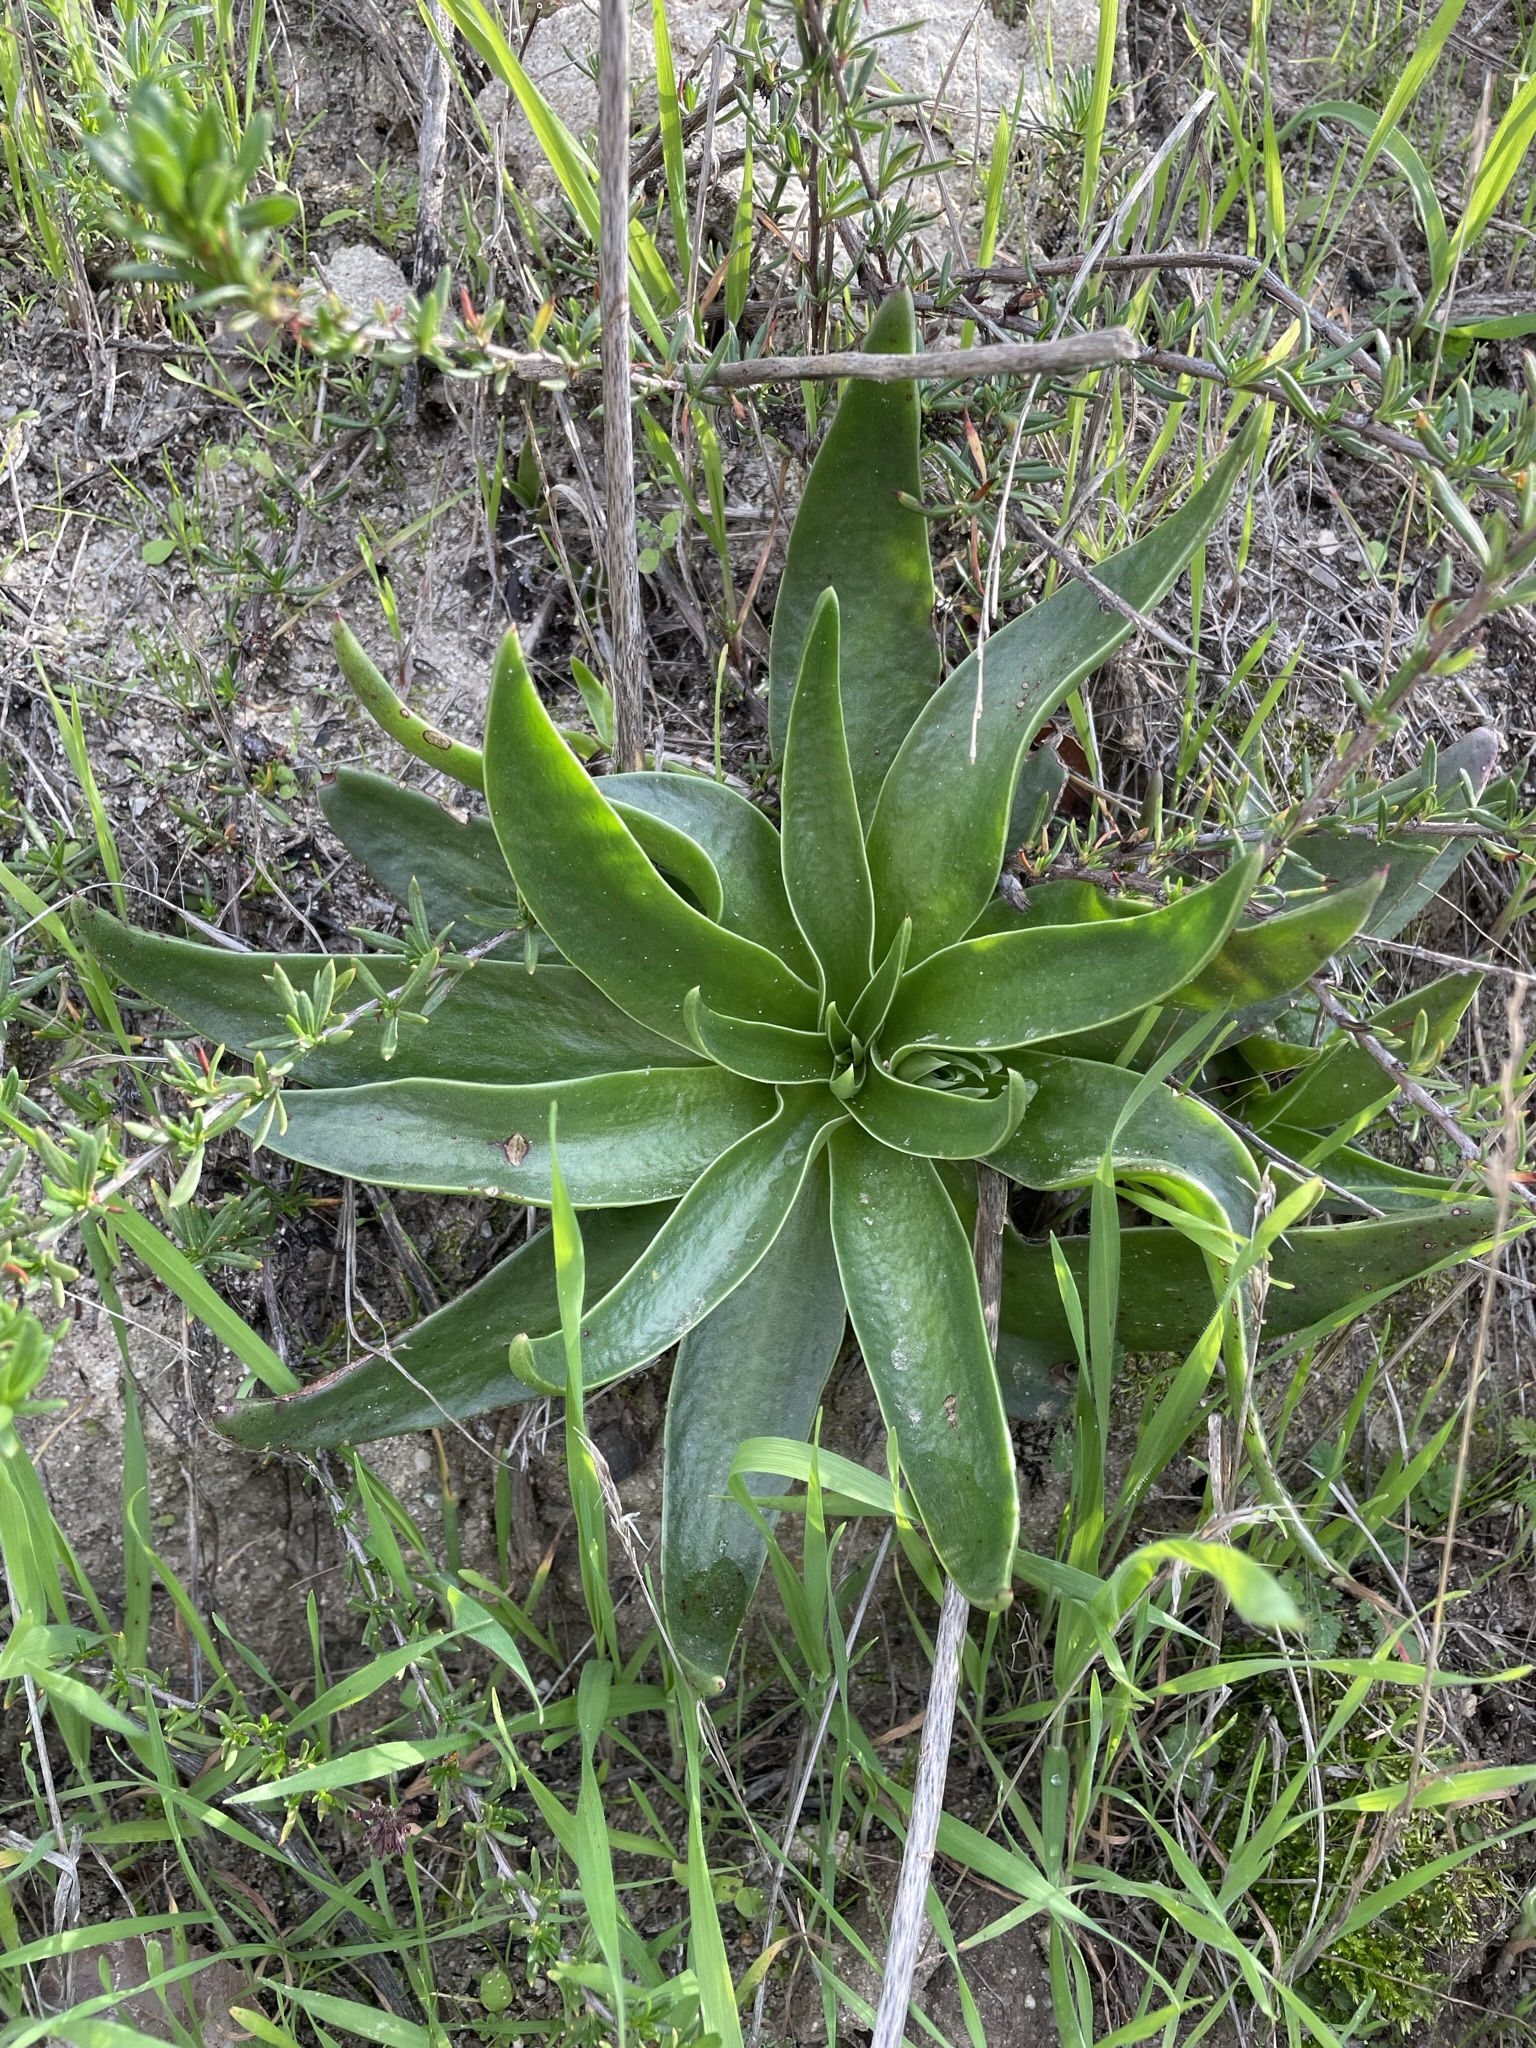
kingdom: Plantae
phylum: Tracheophyta
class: Magnoliopsida
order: Saxifragales
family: Crassulaceae
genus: Dudleya
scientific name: Dudleya lanceolata
